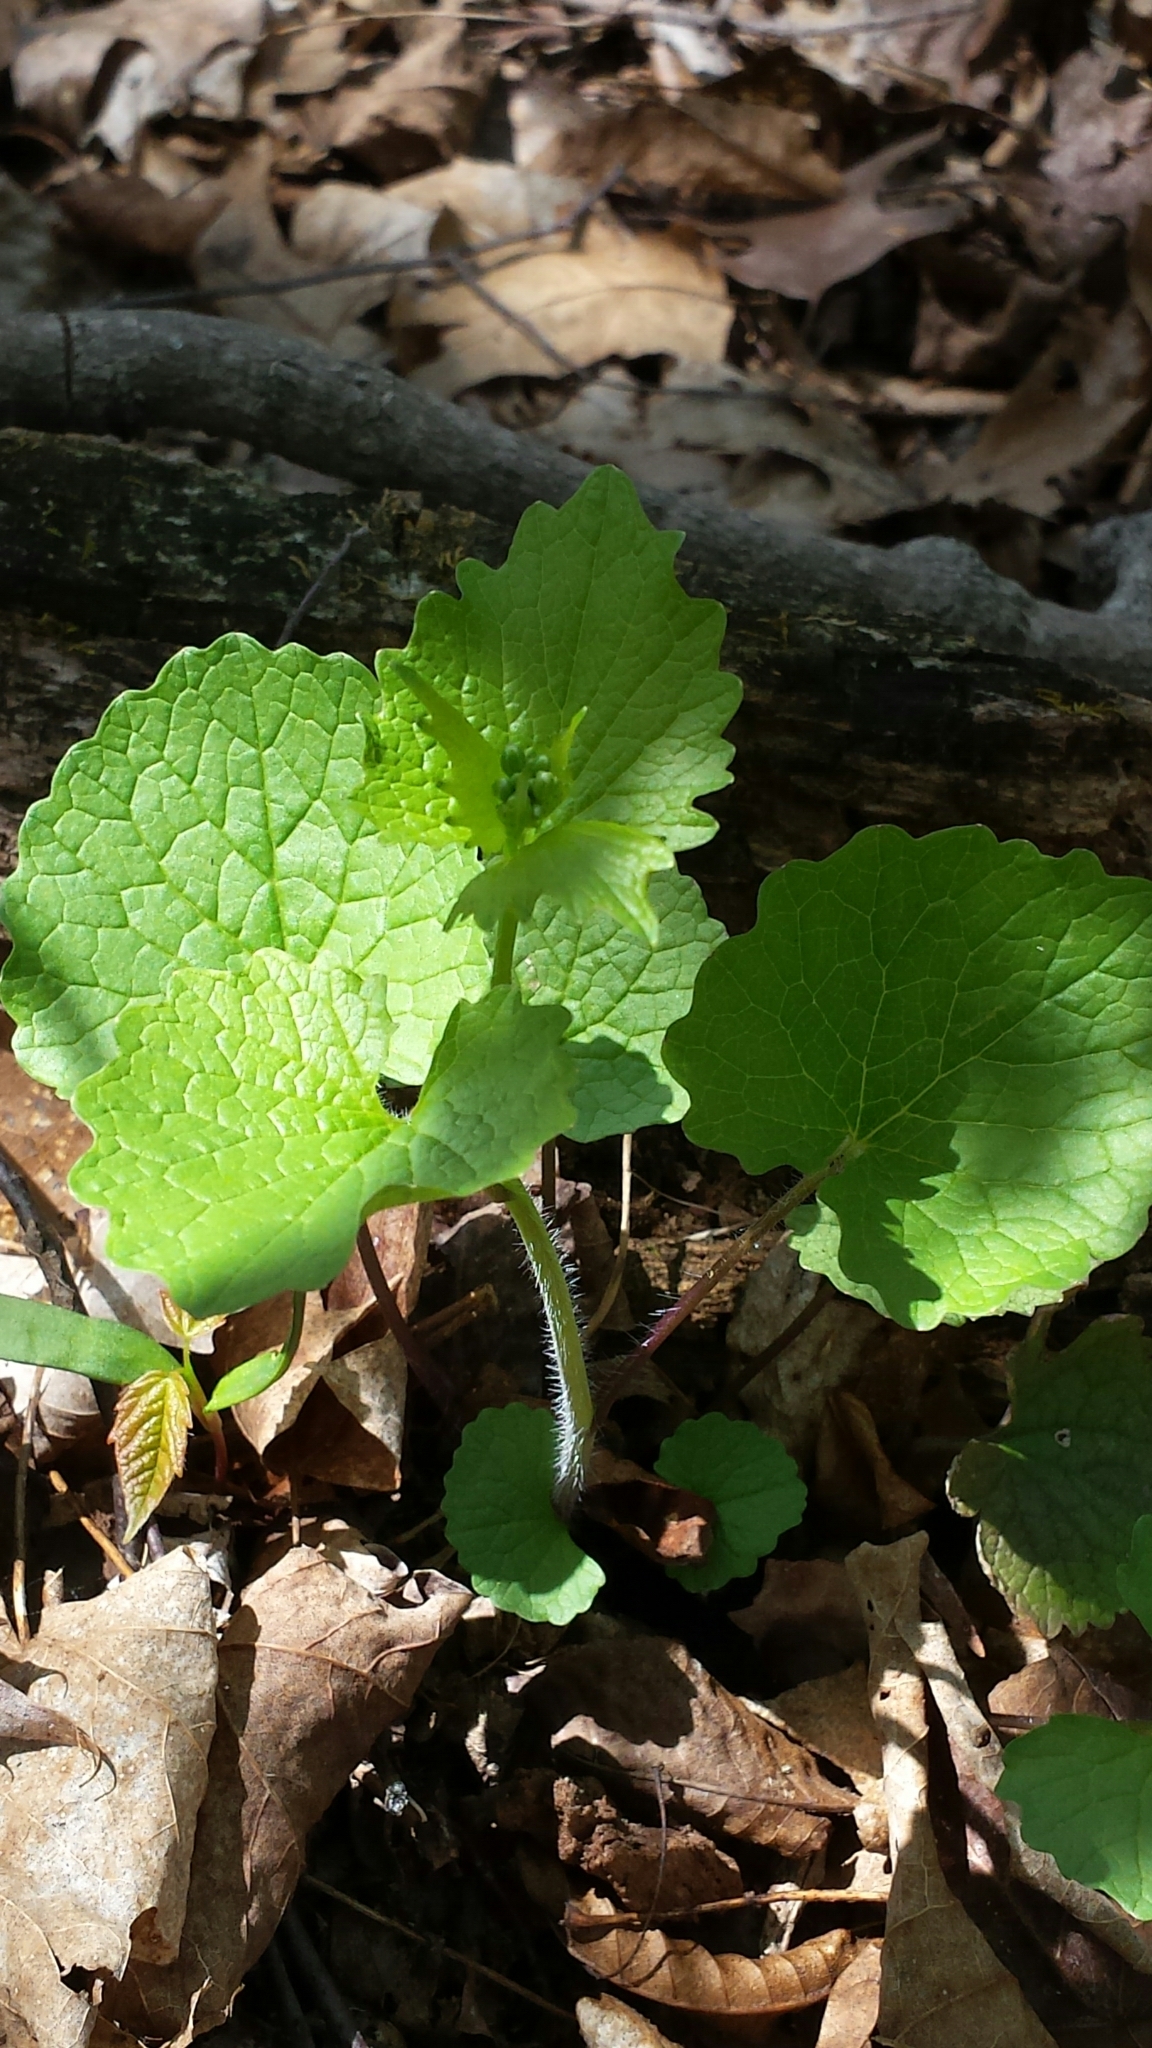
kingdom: Plantae
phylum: Tracheophyta
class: Magnoliopsida
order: Brassicales
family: Brassicaceae
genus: Alliaria
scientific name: Alliaria petiolata
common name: Garlic mustard
